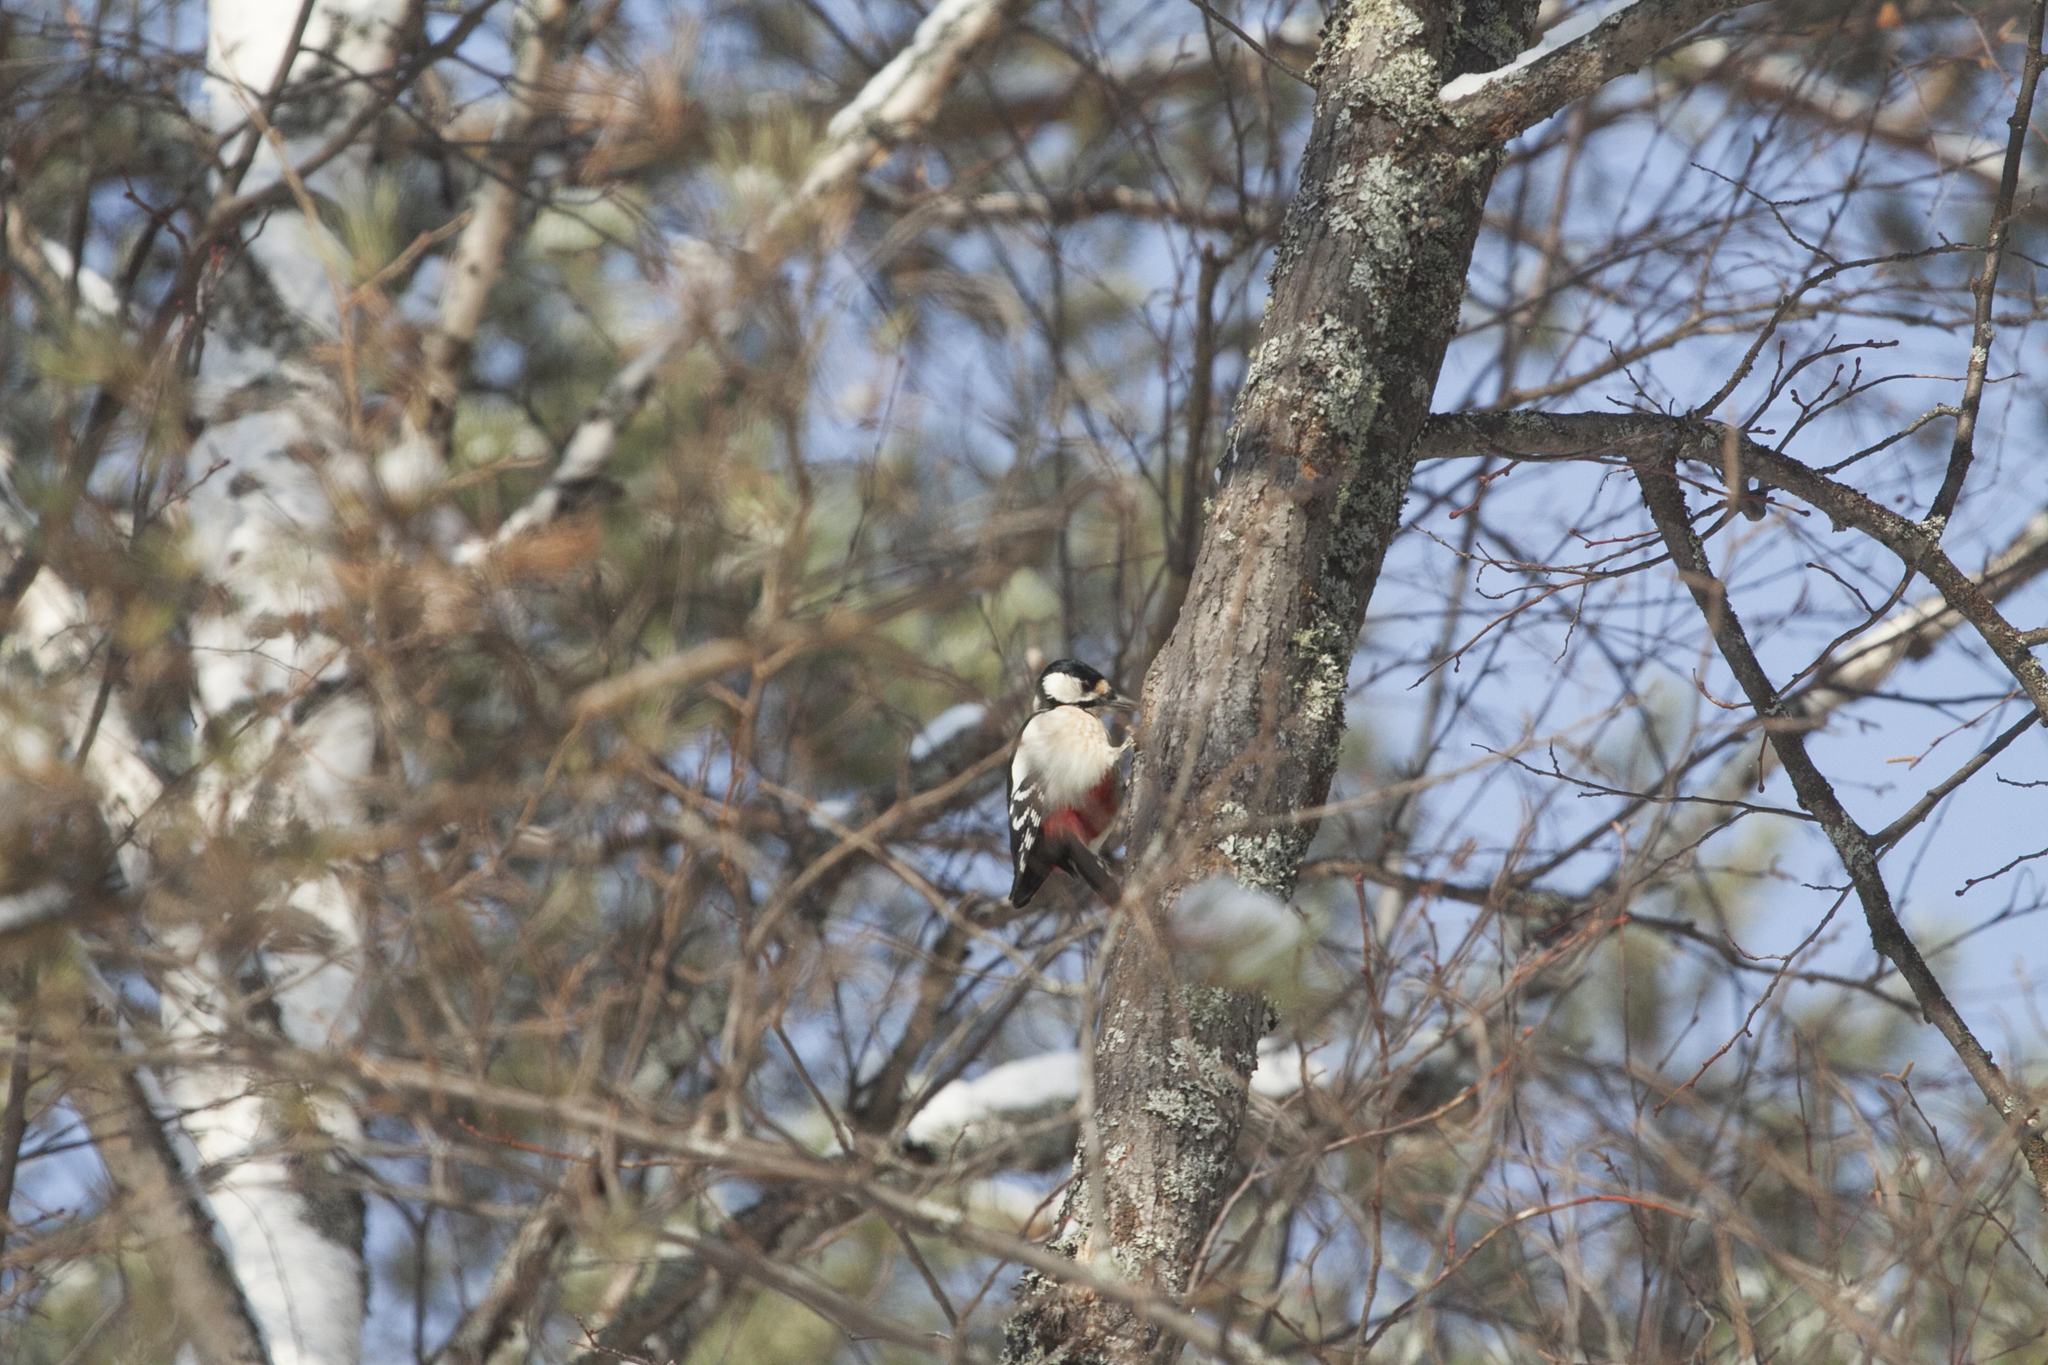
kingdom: Animalia
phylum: Chordata
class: Aves
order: Piciformes
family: Picidae
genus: Dendrocopos
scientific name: Dendrocopos major
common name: Great spotted woodpecker
